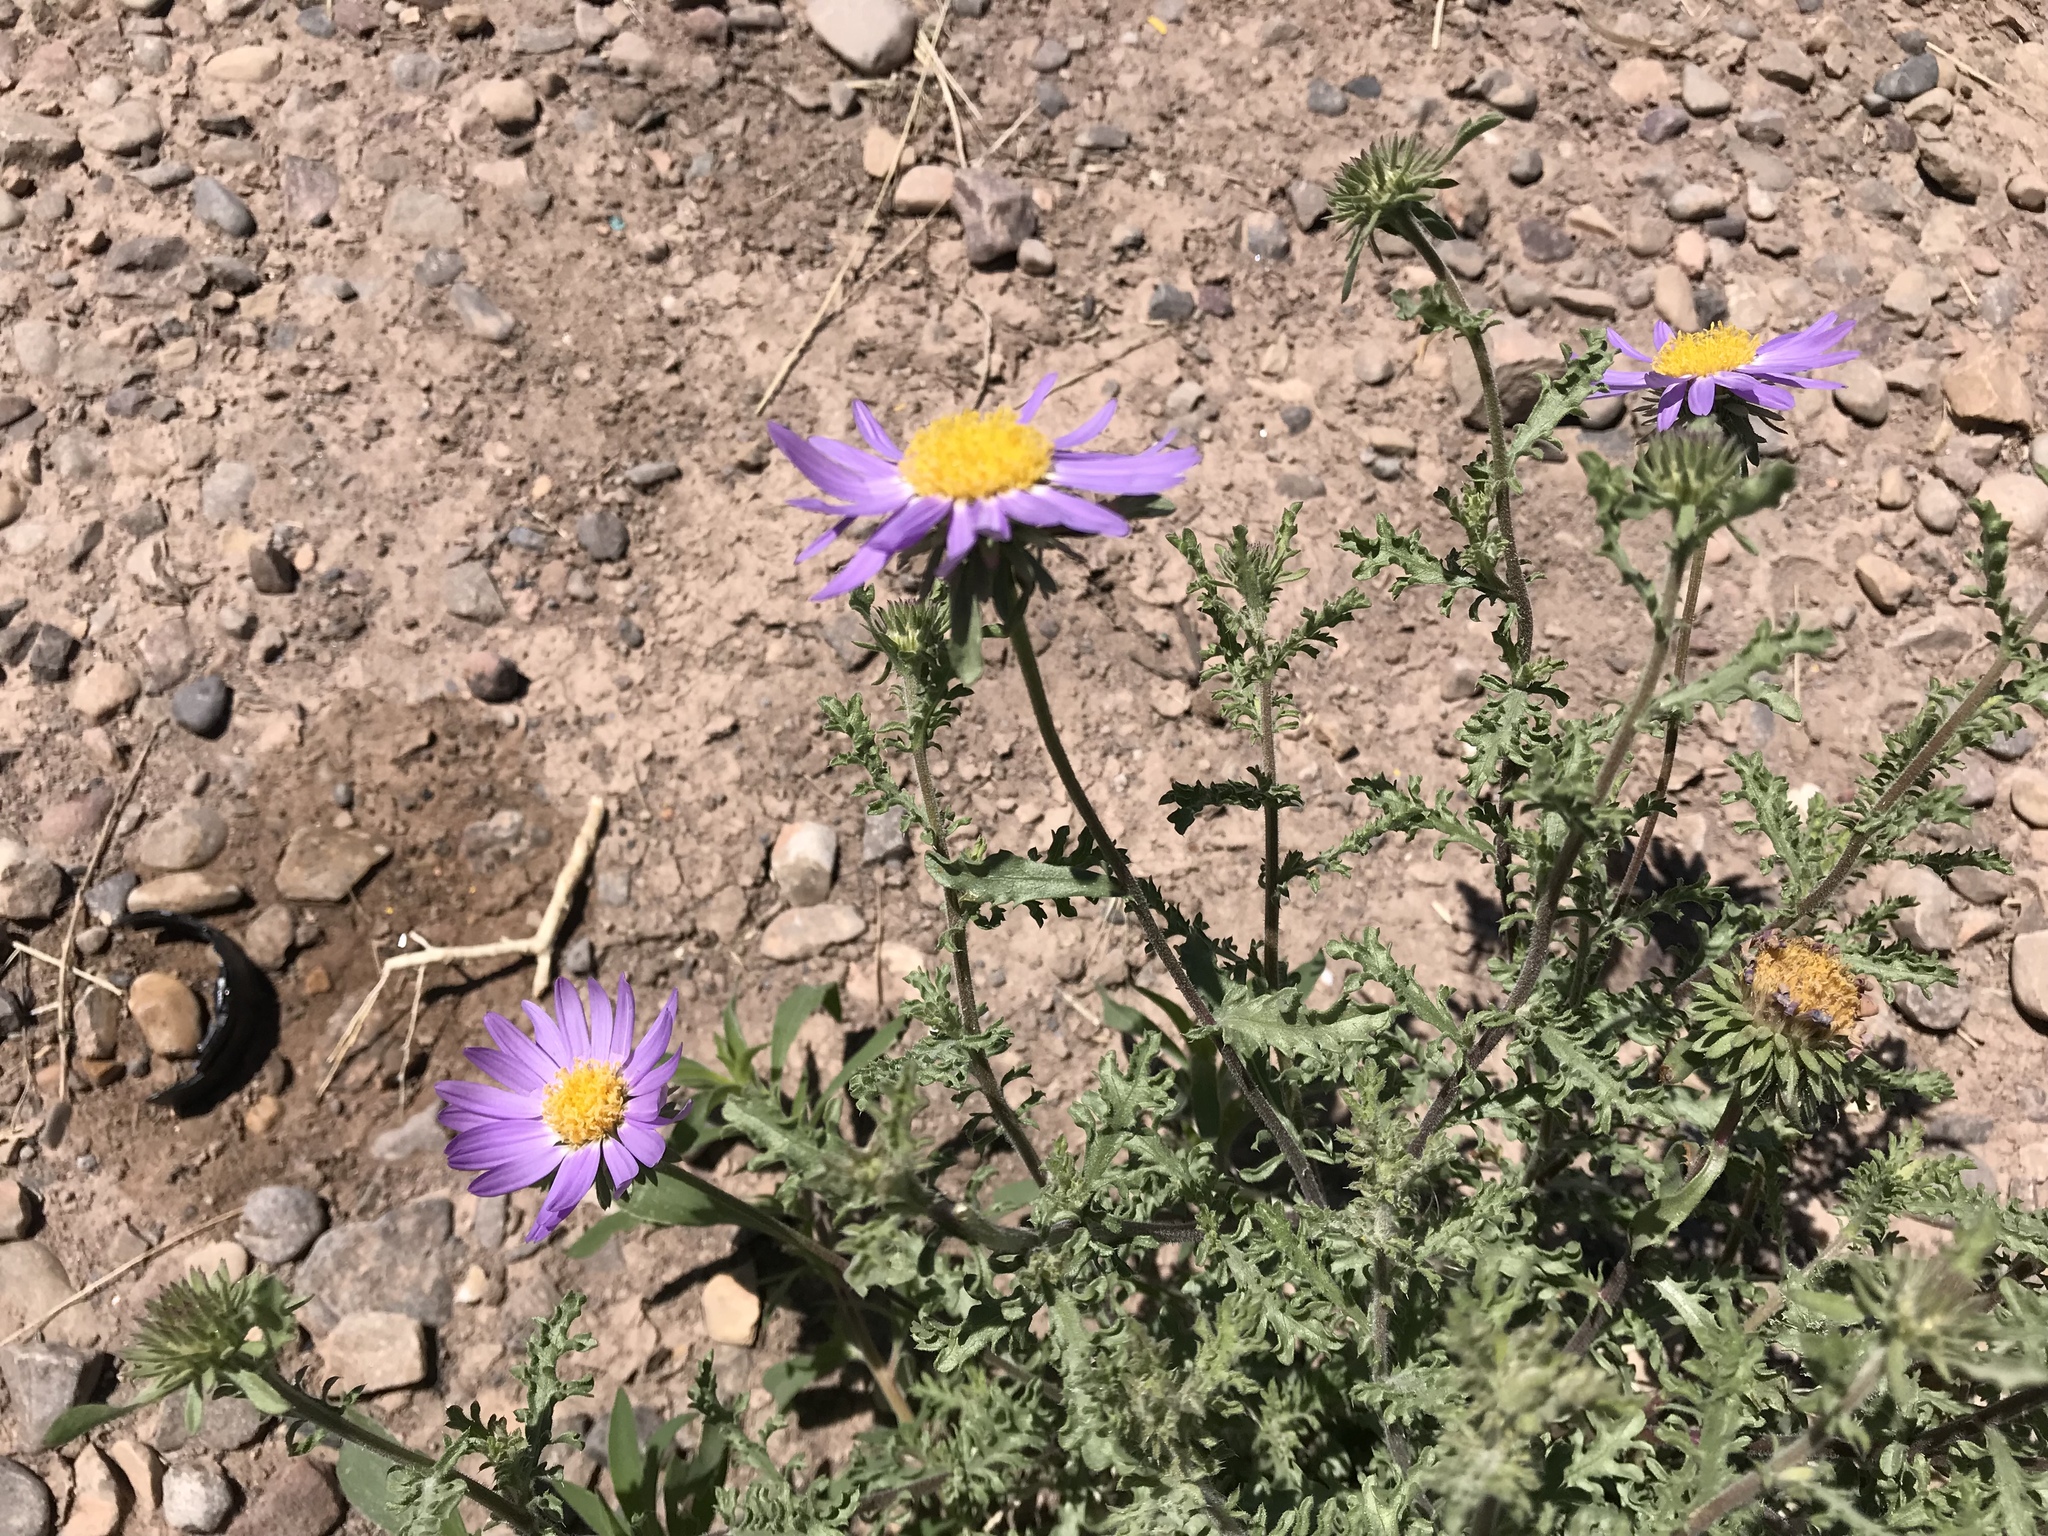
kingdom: Plantae
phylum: Tracheophyta
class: Magnoliopsida
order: Asterales
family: Asteraceae
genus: Machaeranthera
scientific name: Machaeranthera tanacetifolia
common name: Tansy-aster
